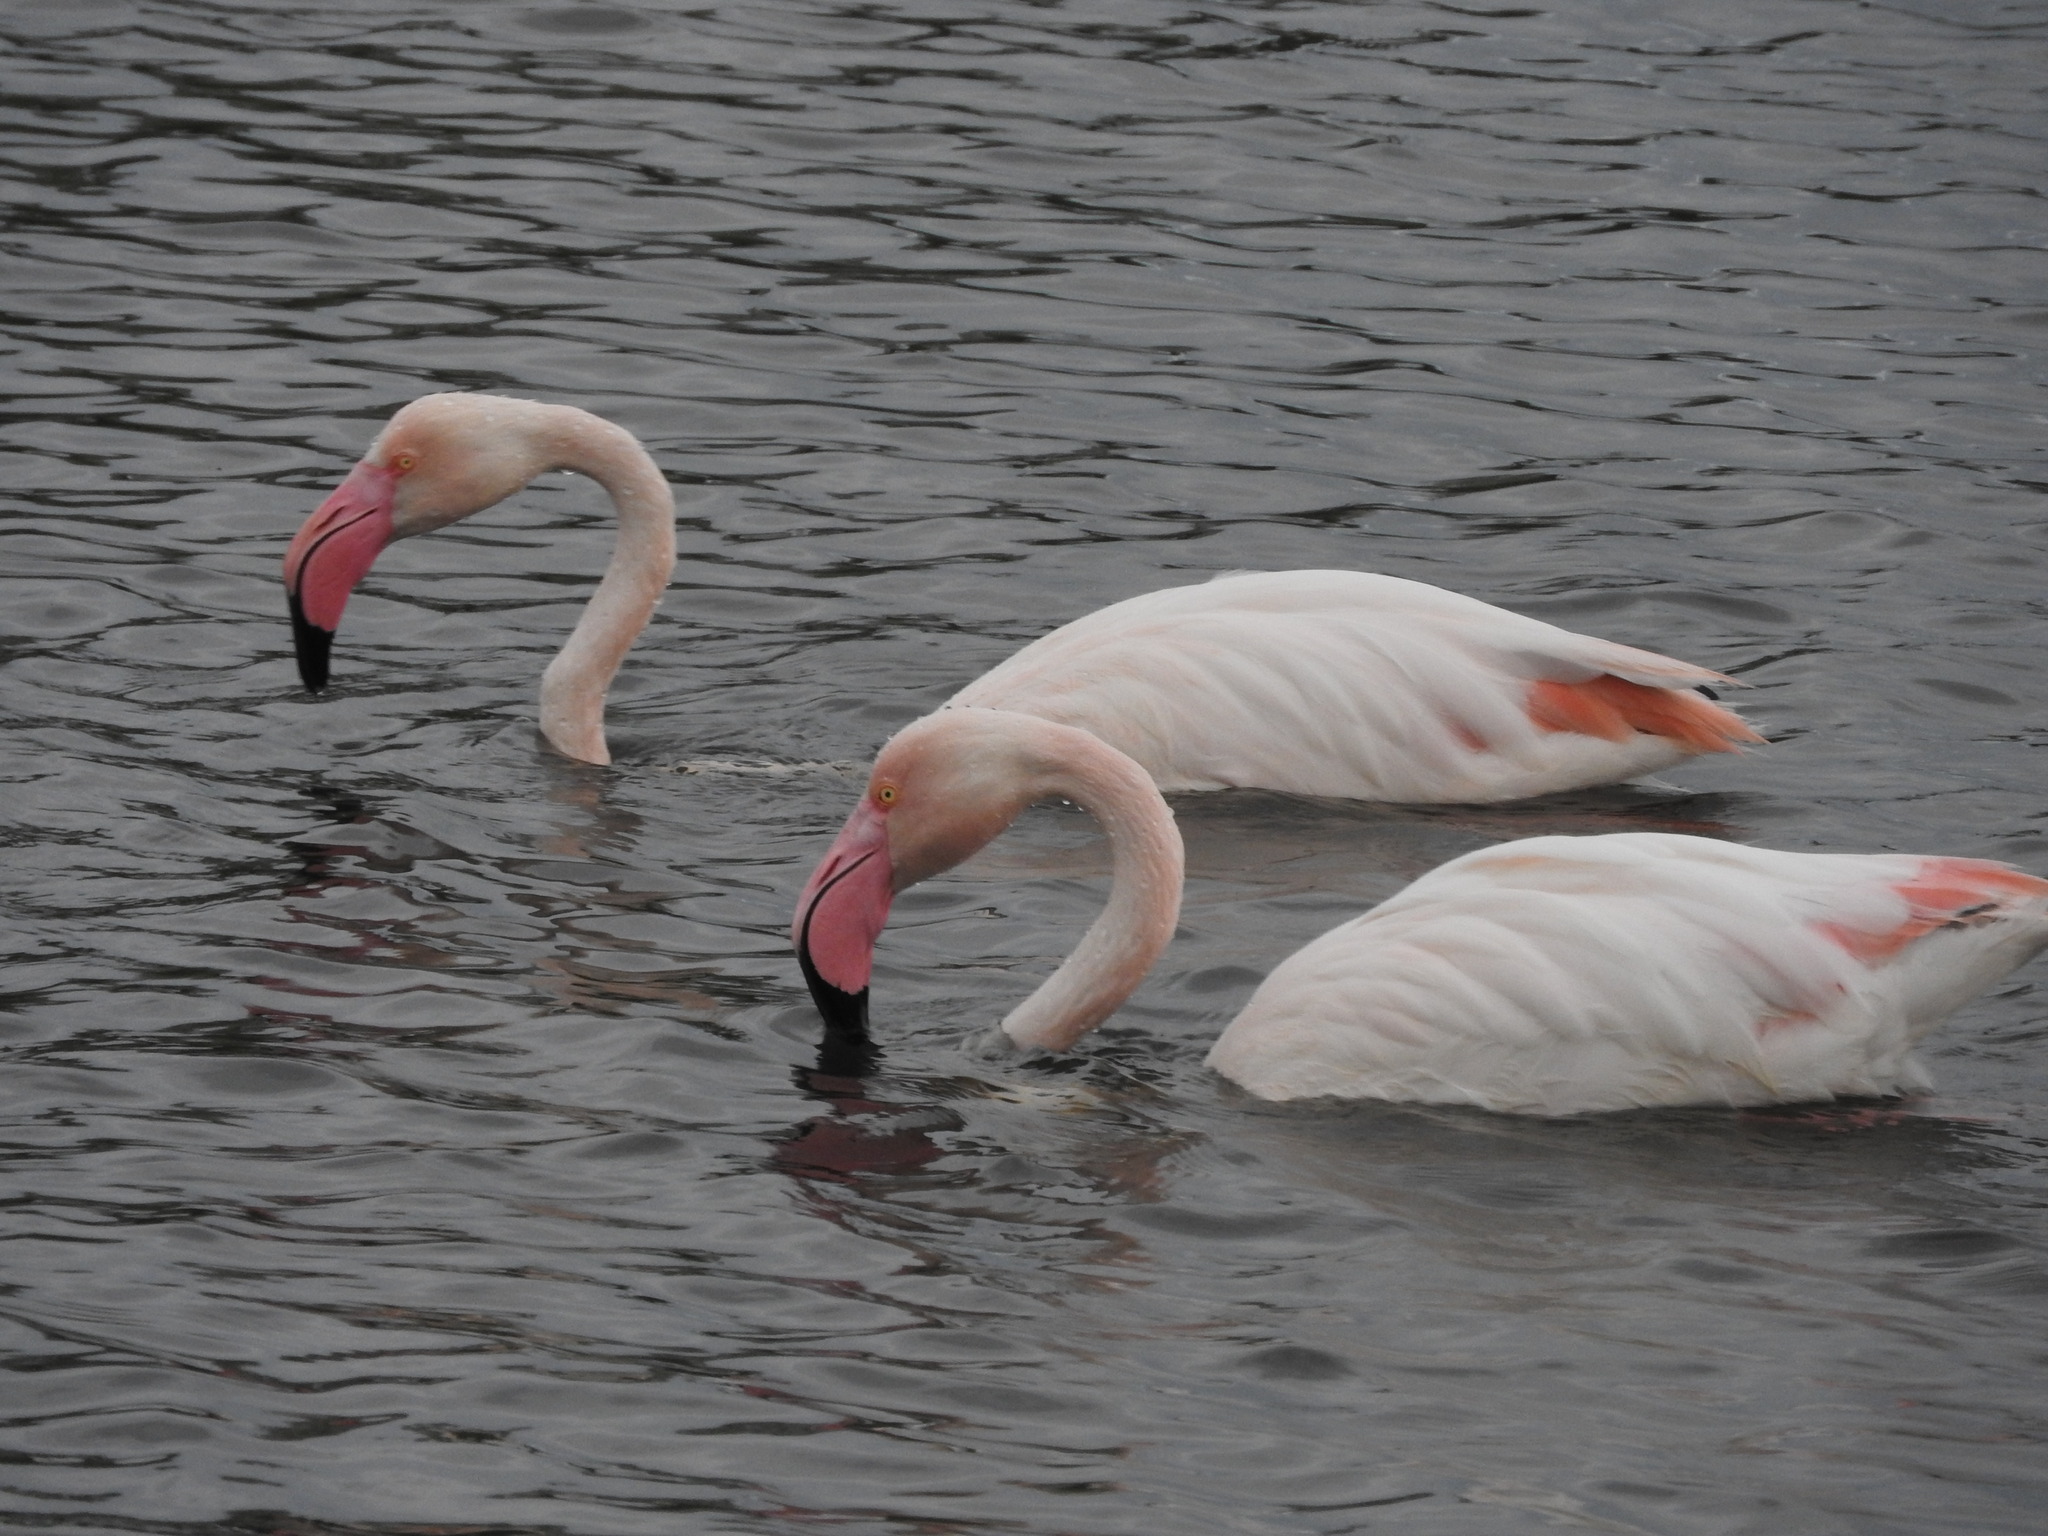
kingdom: Animalia
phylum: Chordata
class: Aves
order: Phoenicopteriformes
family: Phoenicopteridae
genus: Phoenicopterus
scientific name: Phoenicopterus roseus
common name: Greater flamingo
